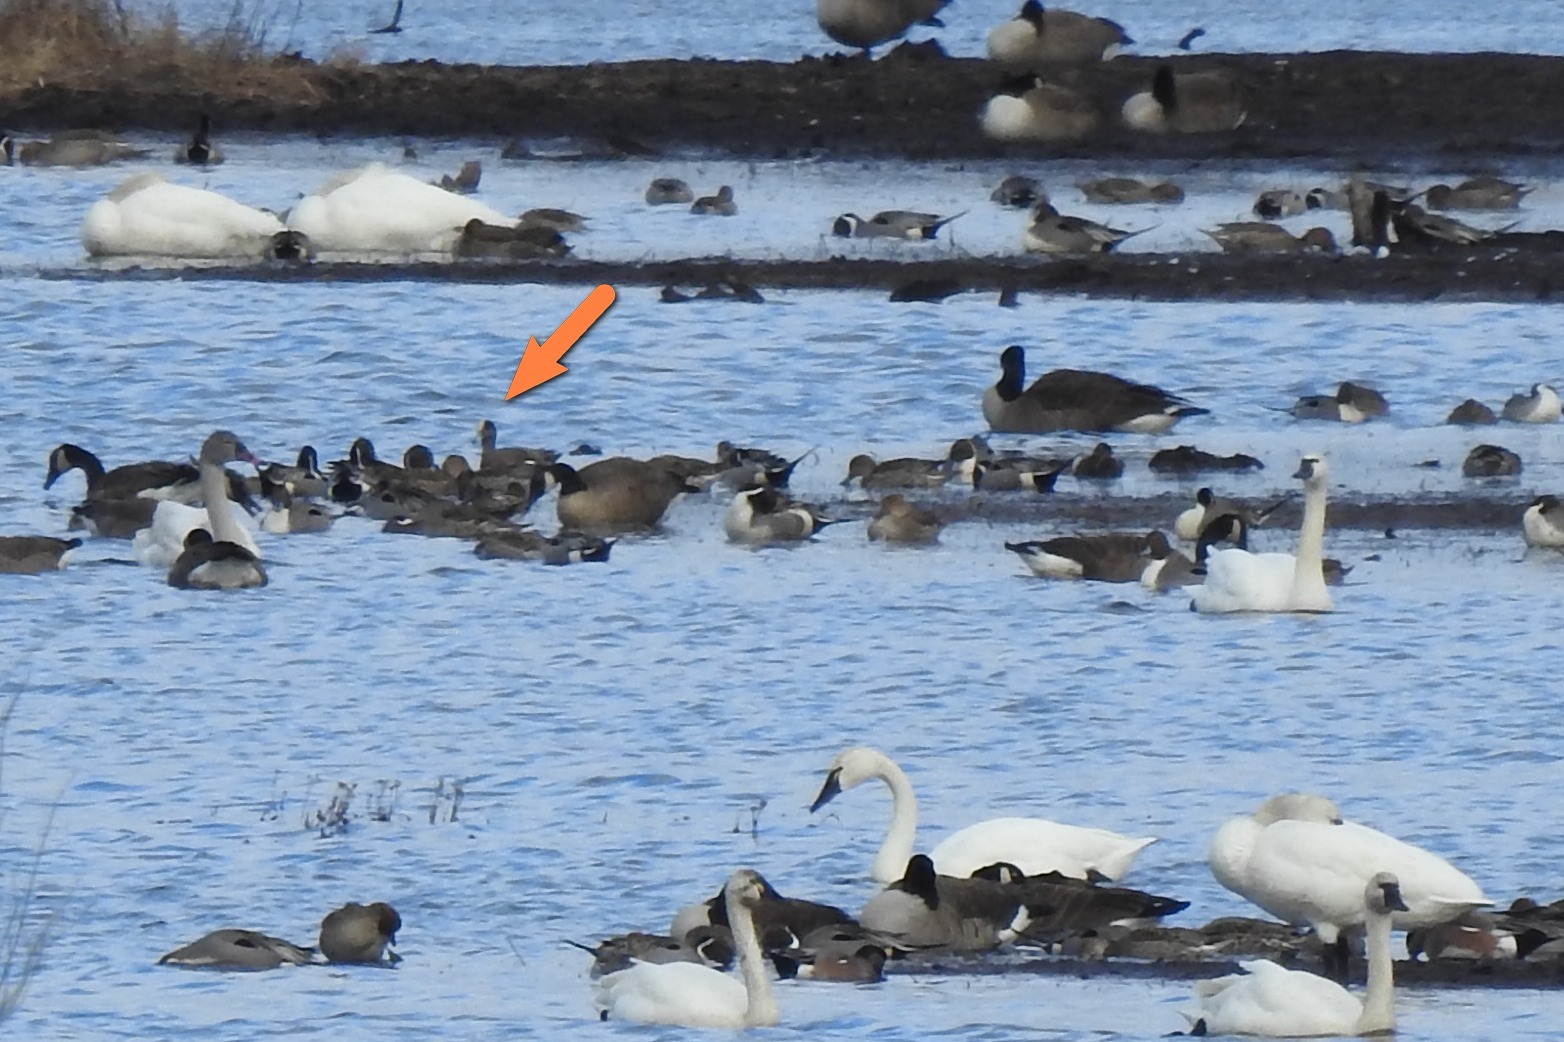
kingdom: Animalia
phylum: Chordata
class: Aves
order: Anseriformes
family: Anatidae
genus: Mareca
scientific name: Mareca americana
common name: American wigeon
